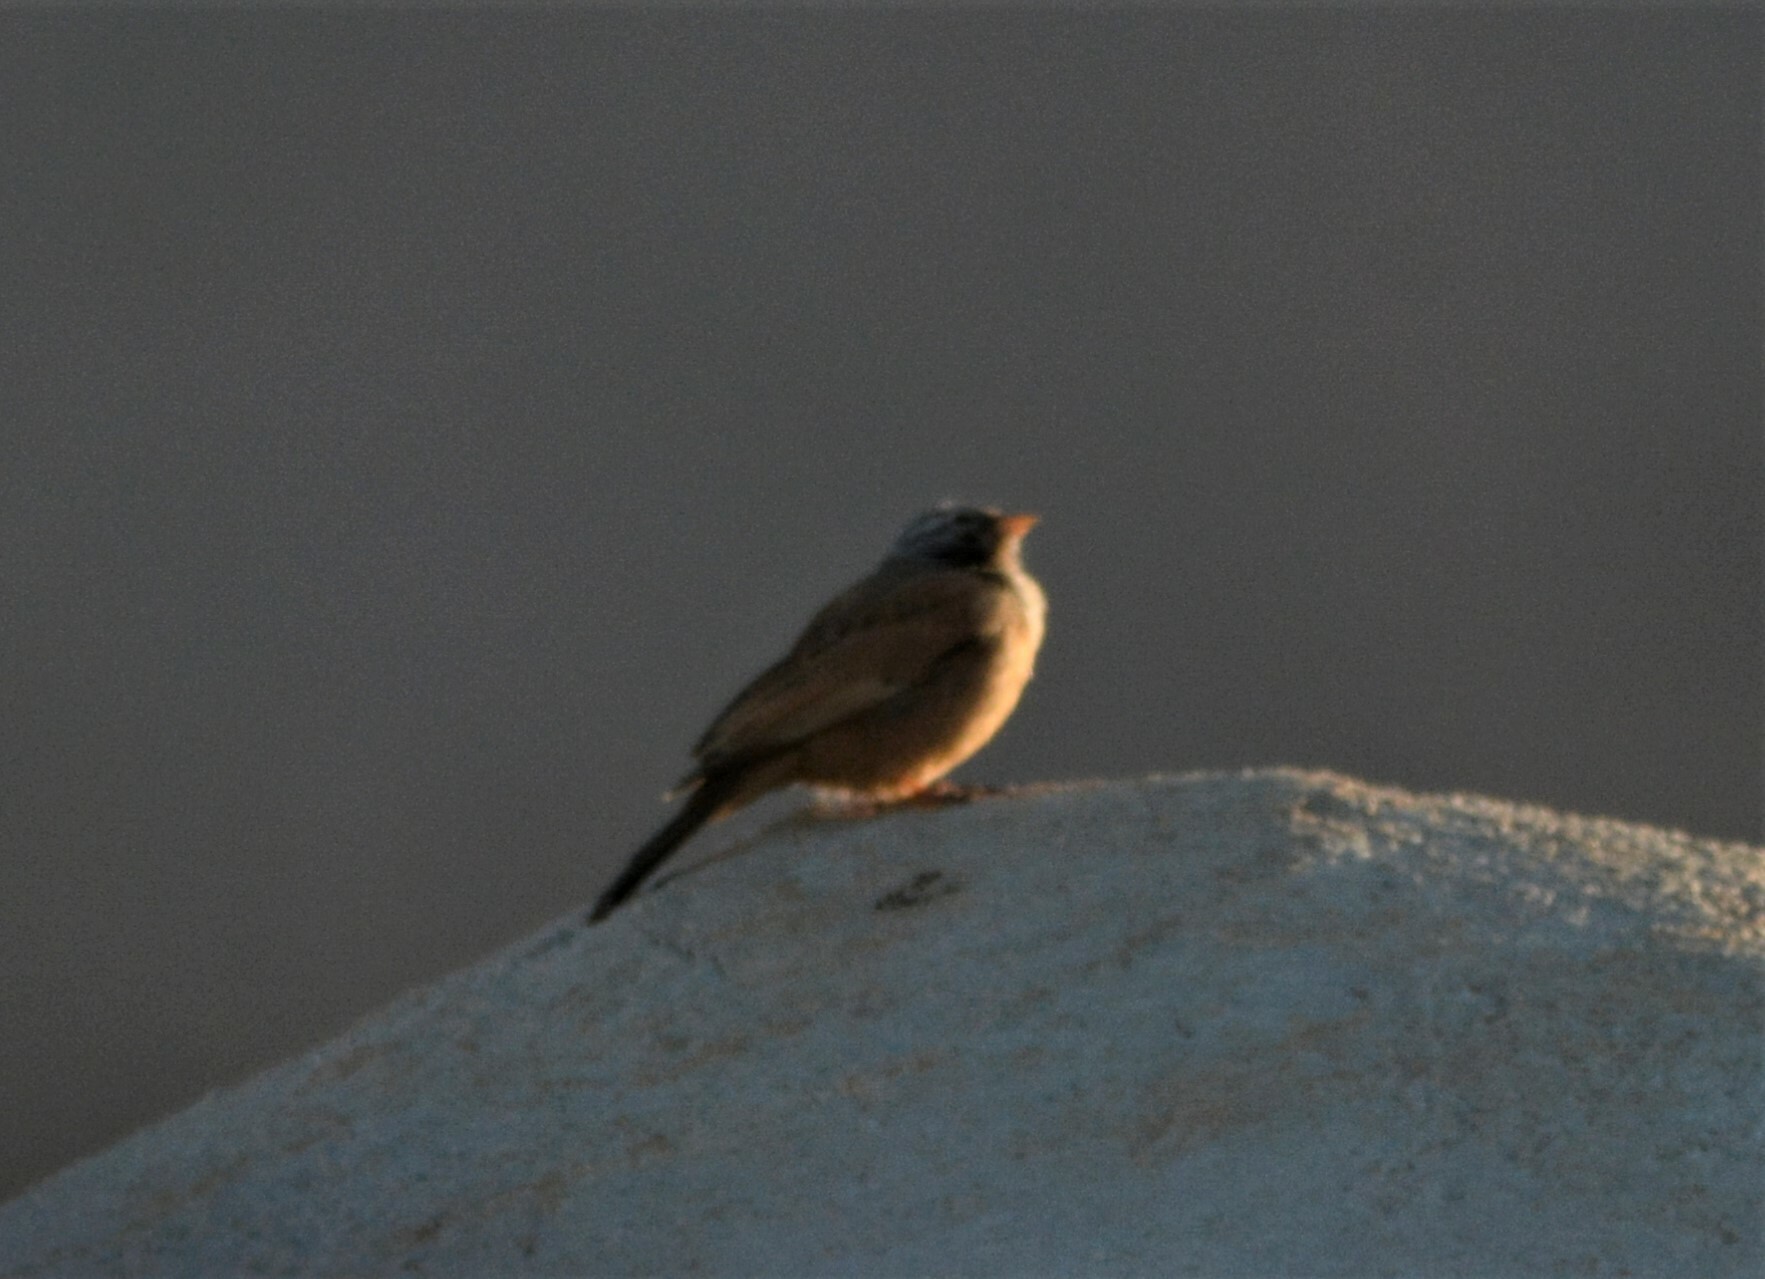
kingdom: Animalia
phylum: Chordata
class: Aves
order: Passeriformes
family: Emberizidae
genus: Emberiza
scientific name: Emberiza sahari
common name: House bunting
